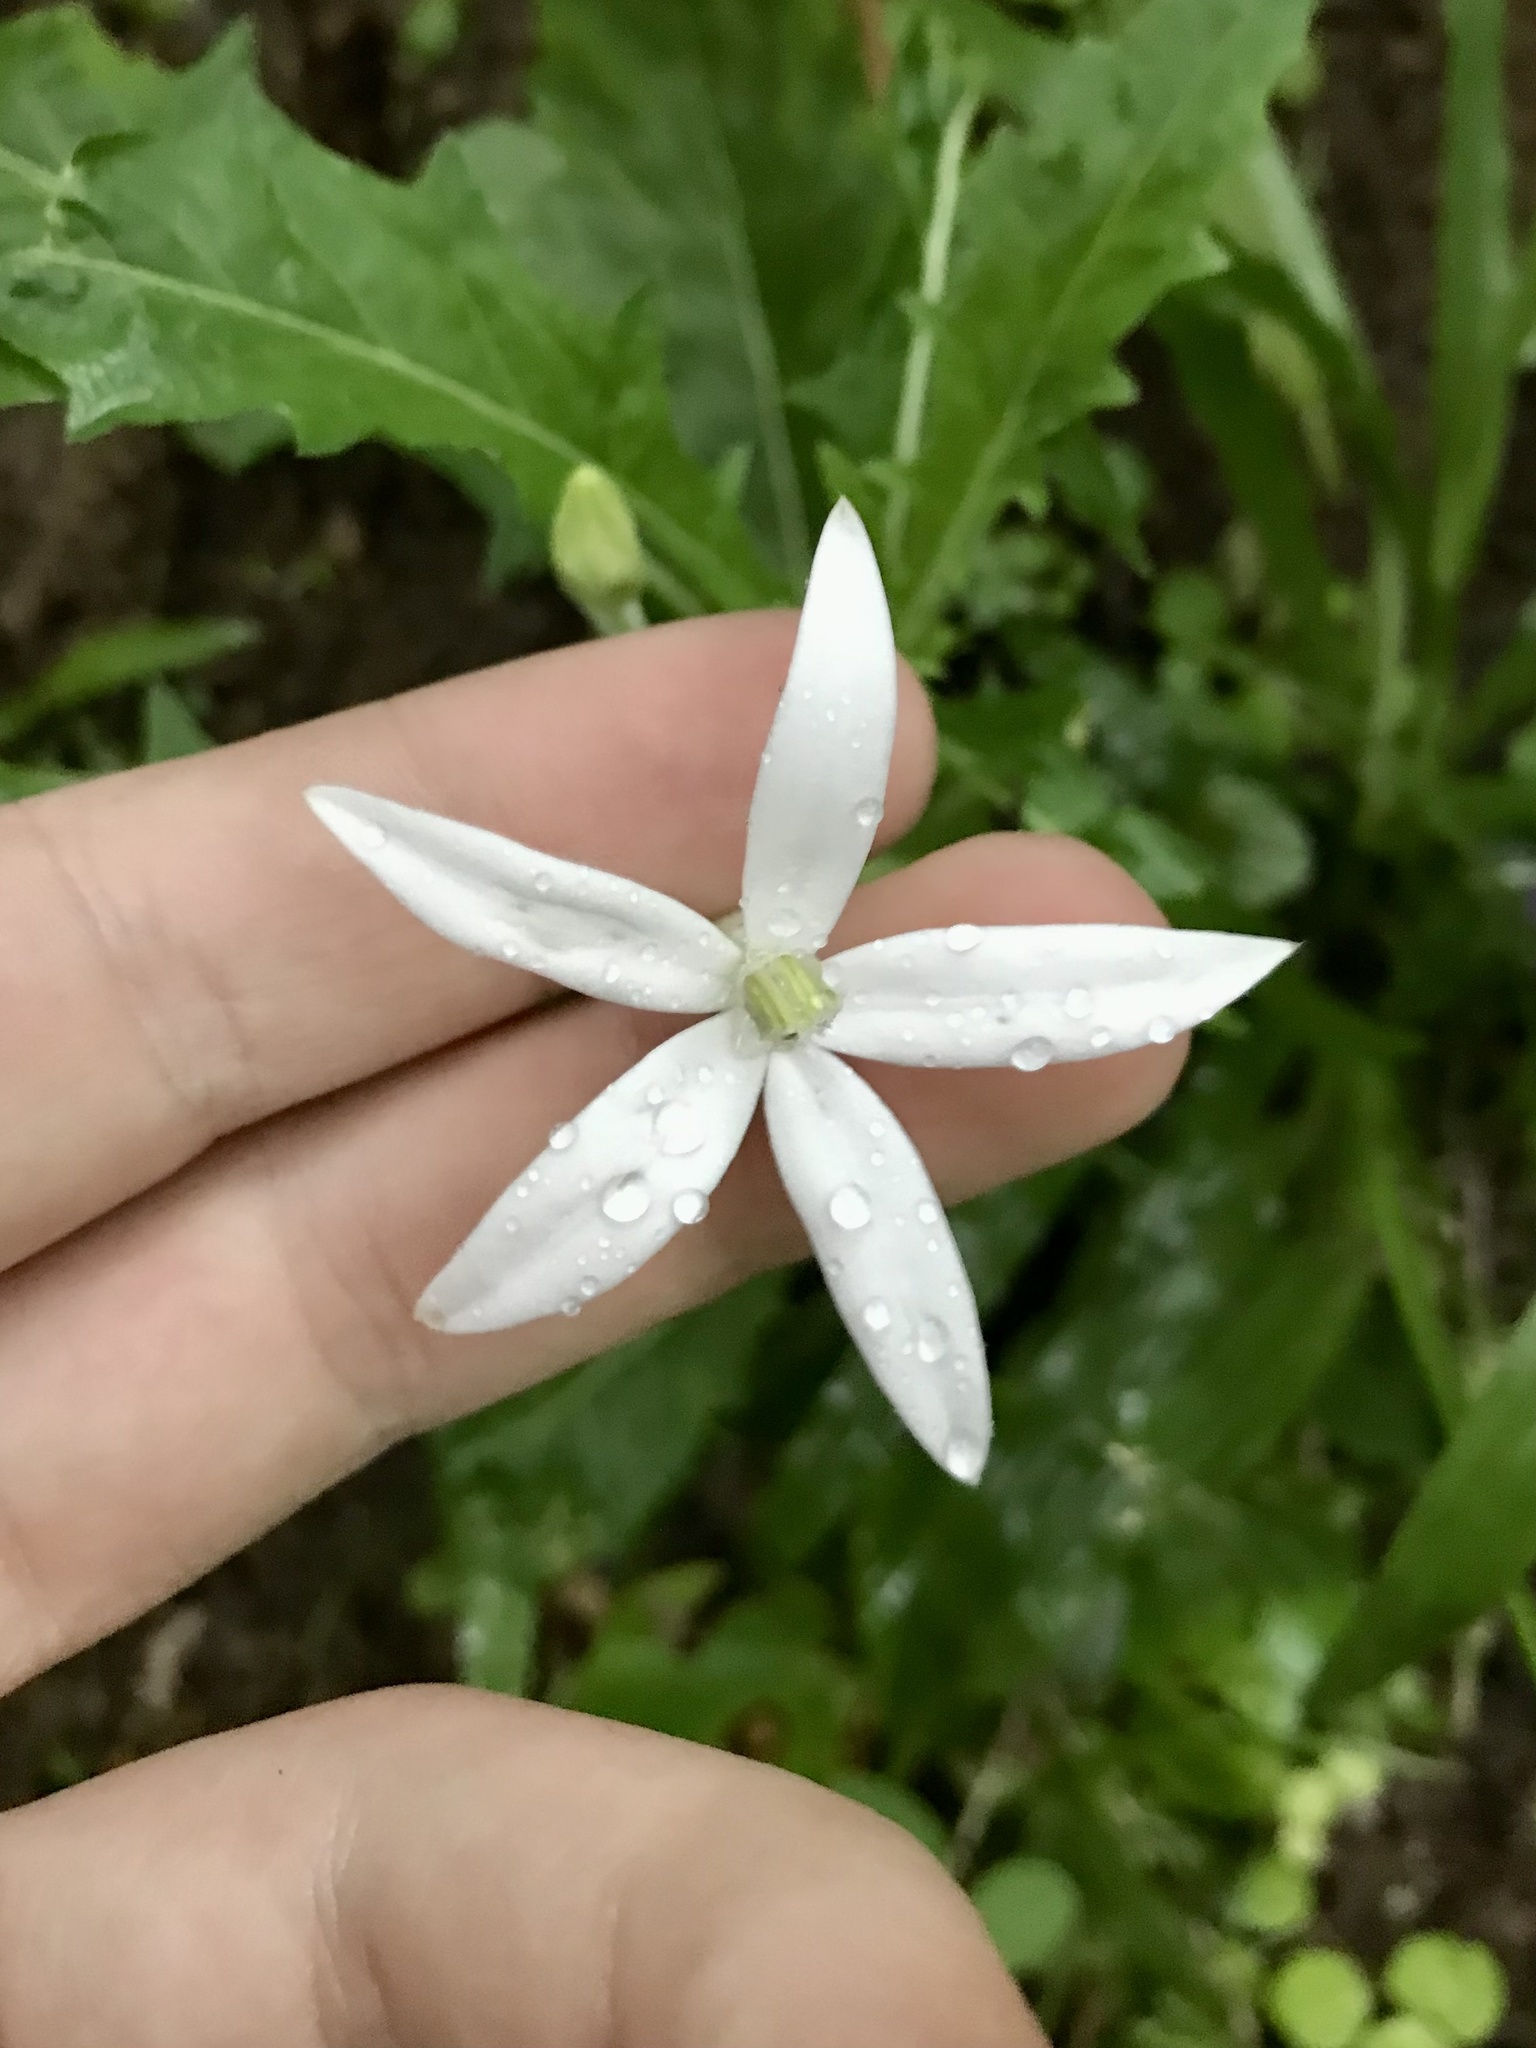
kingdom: Plantae
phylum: Tracheophyta
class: Magnoliopsida
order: Asterales
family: Campanulaceae
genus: Hippobroma
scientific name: Hippobroma longiflora
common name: Madamfate
